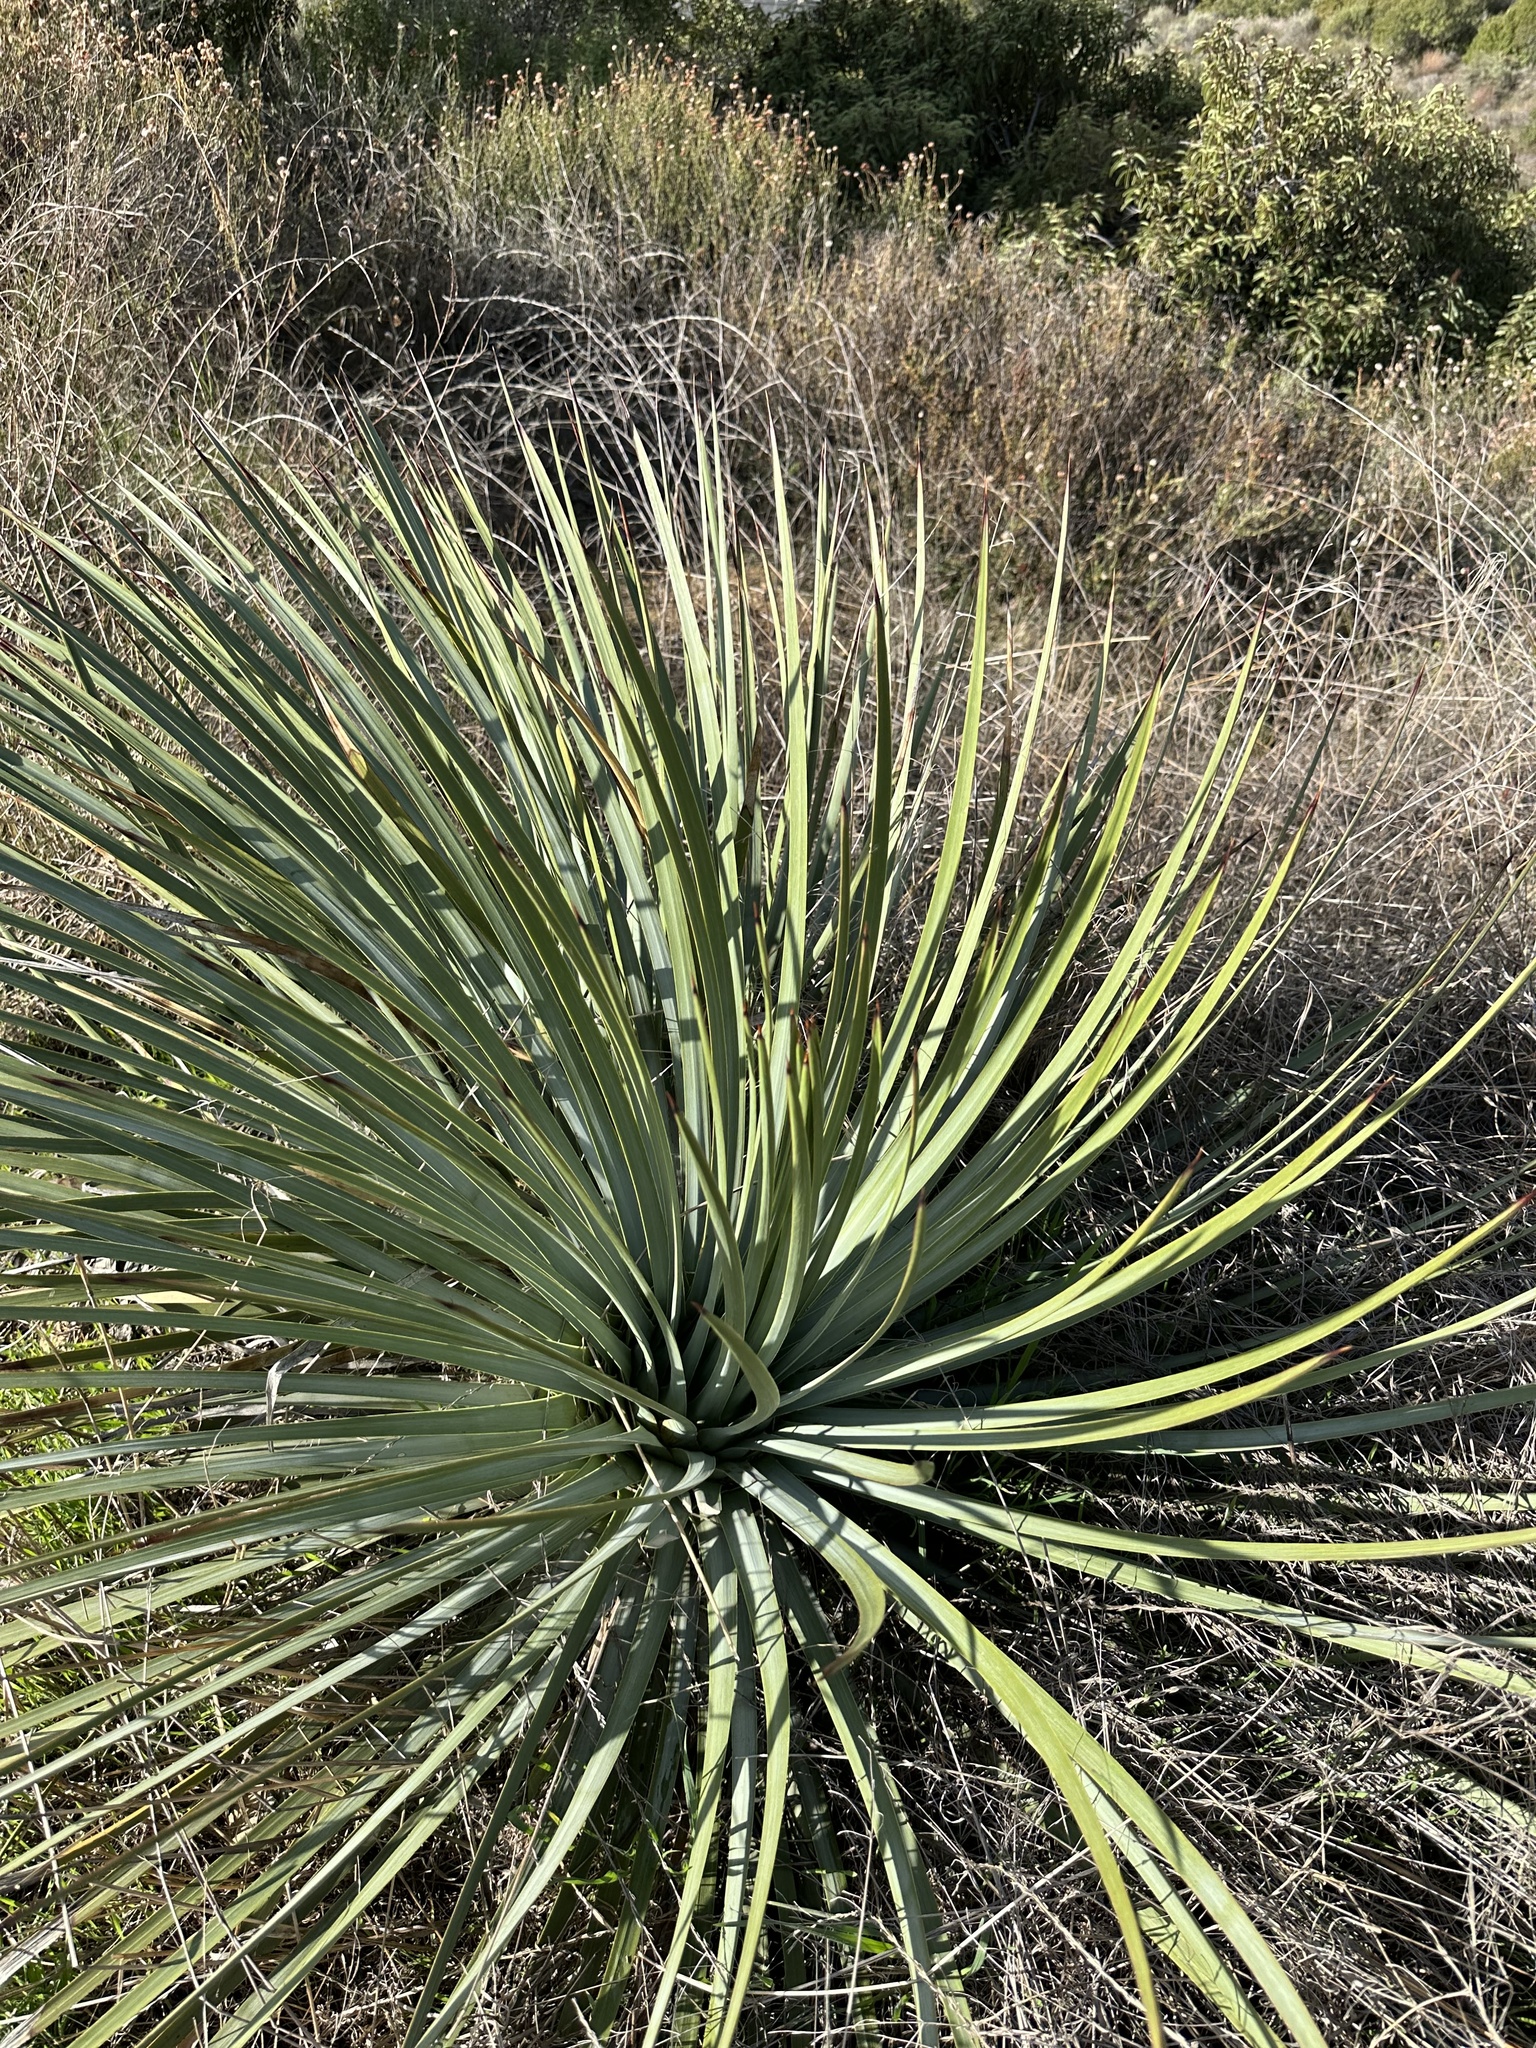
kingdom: Plantae
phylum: Tracheophyta
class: Liliopsida
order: Asparagales
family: Asparagaceae
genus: Hesperoyucca
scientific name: Hesperoyucca whipplei
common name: Our lord's-candle
